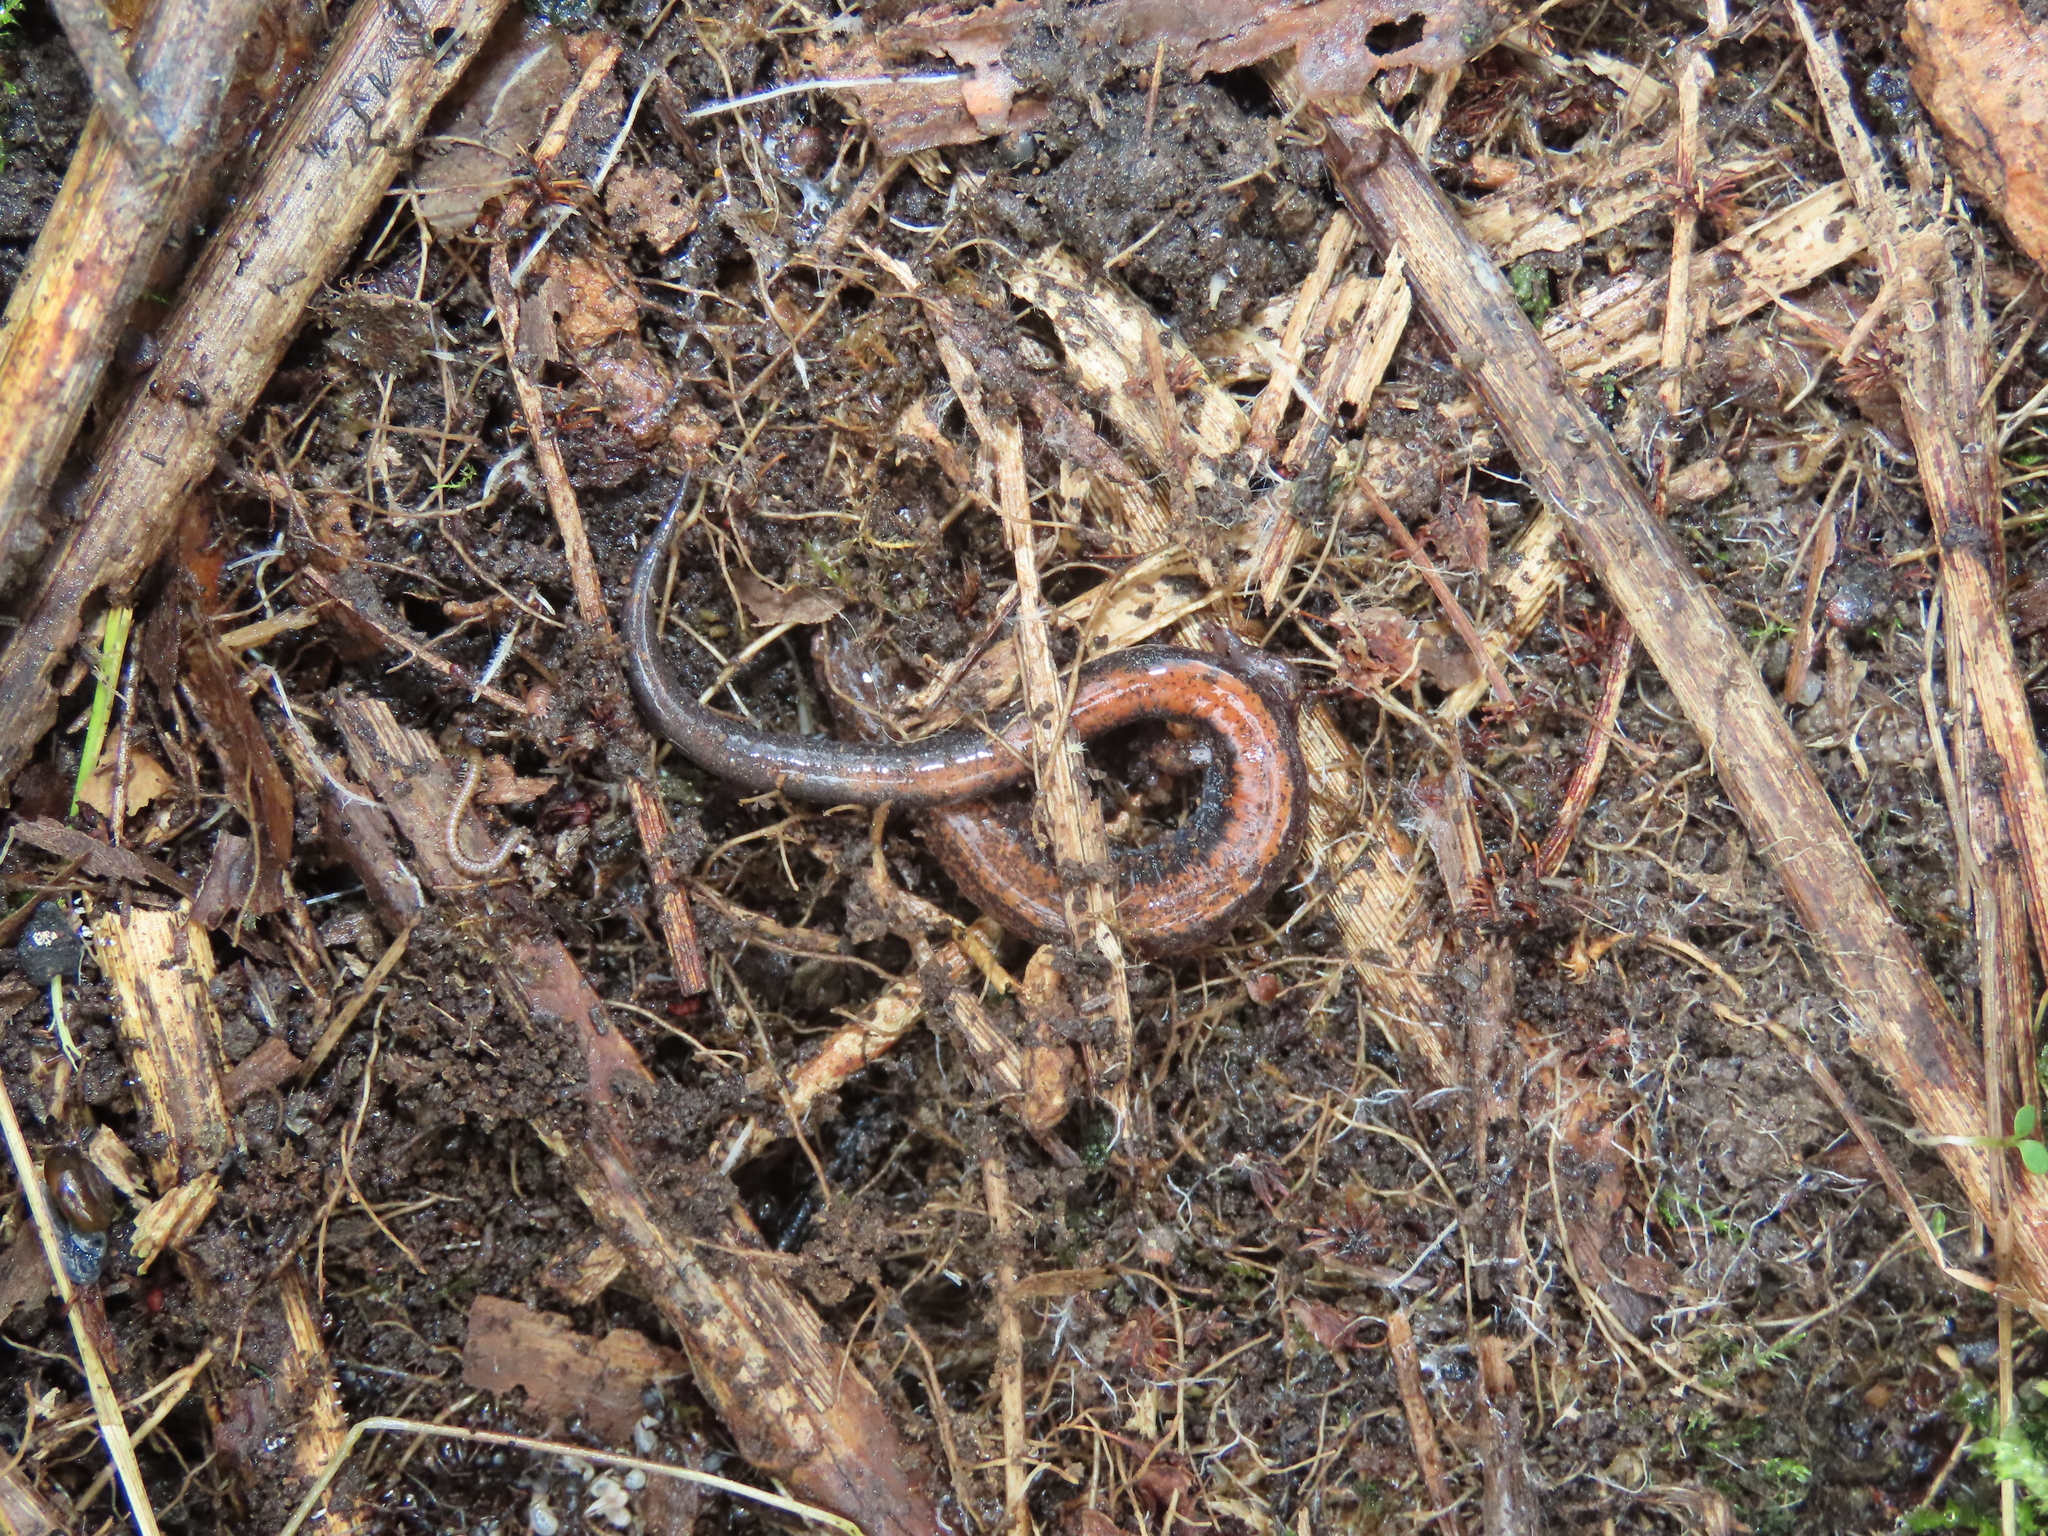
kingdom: Animalia
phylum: Chordata
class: Amphibia
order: Caudata
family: Plethodontidae
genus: Plethodon
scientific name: Plethodon cinereus
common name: Redback salamander
